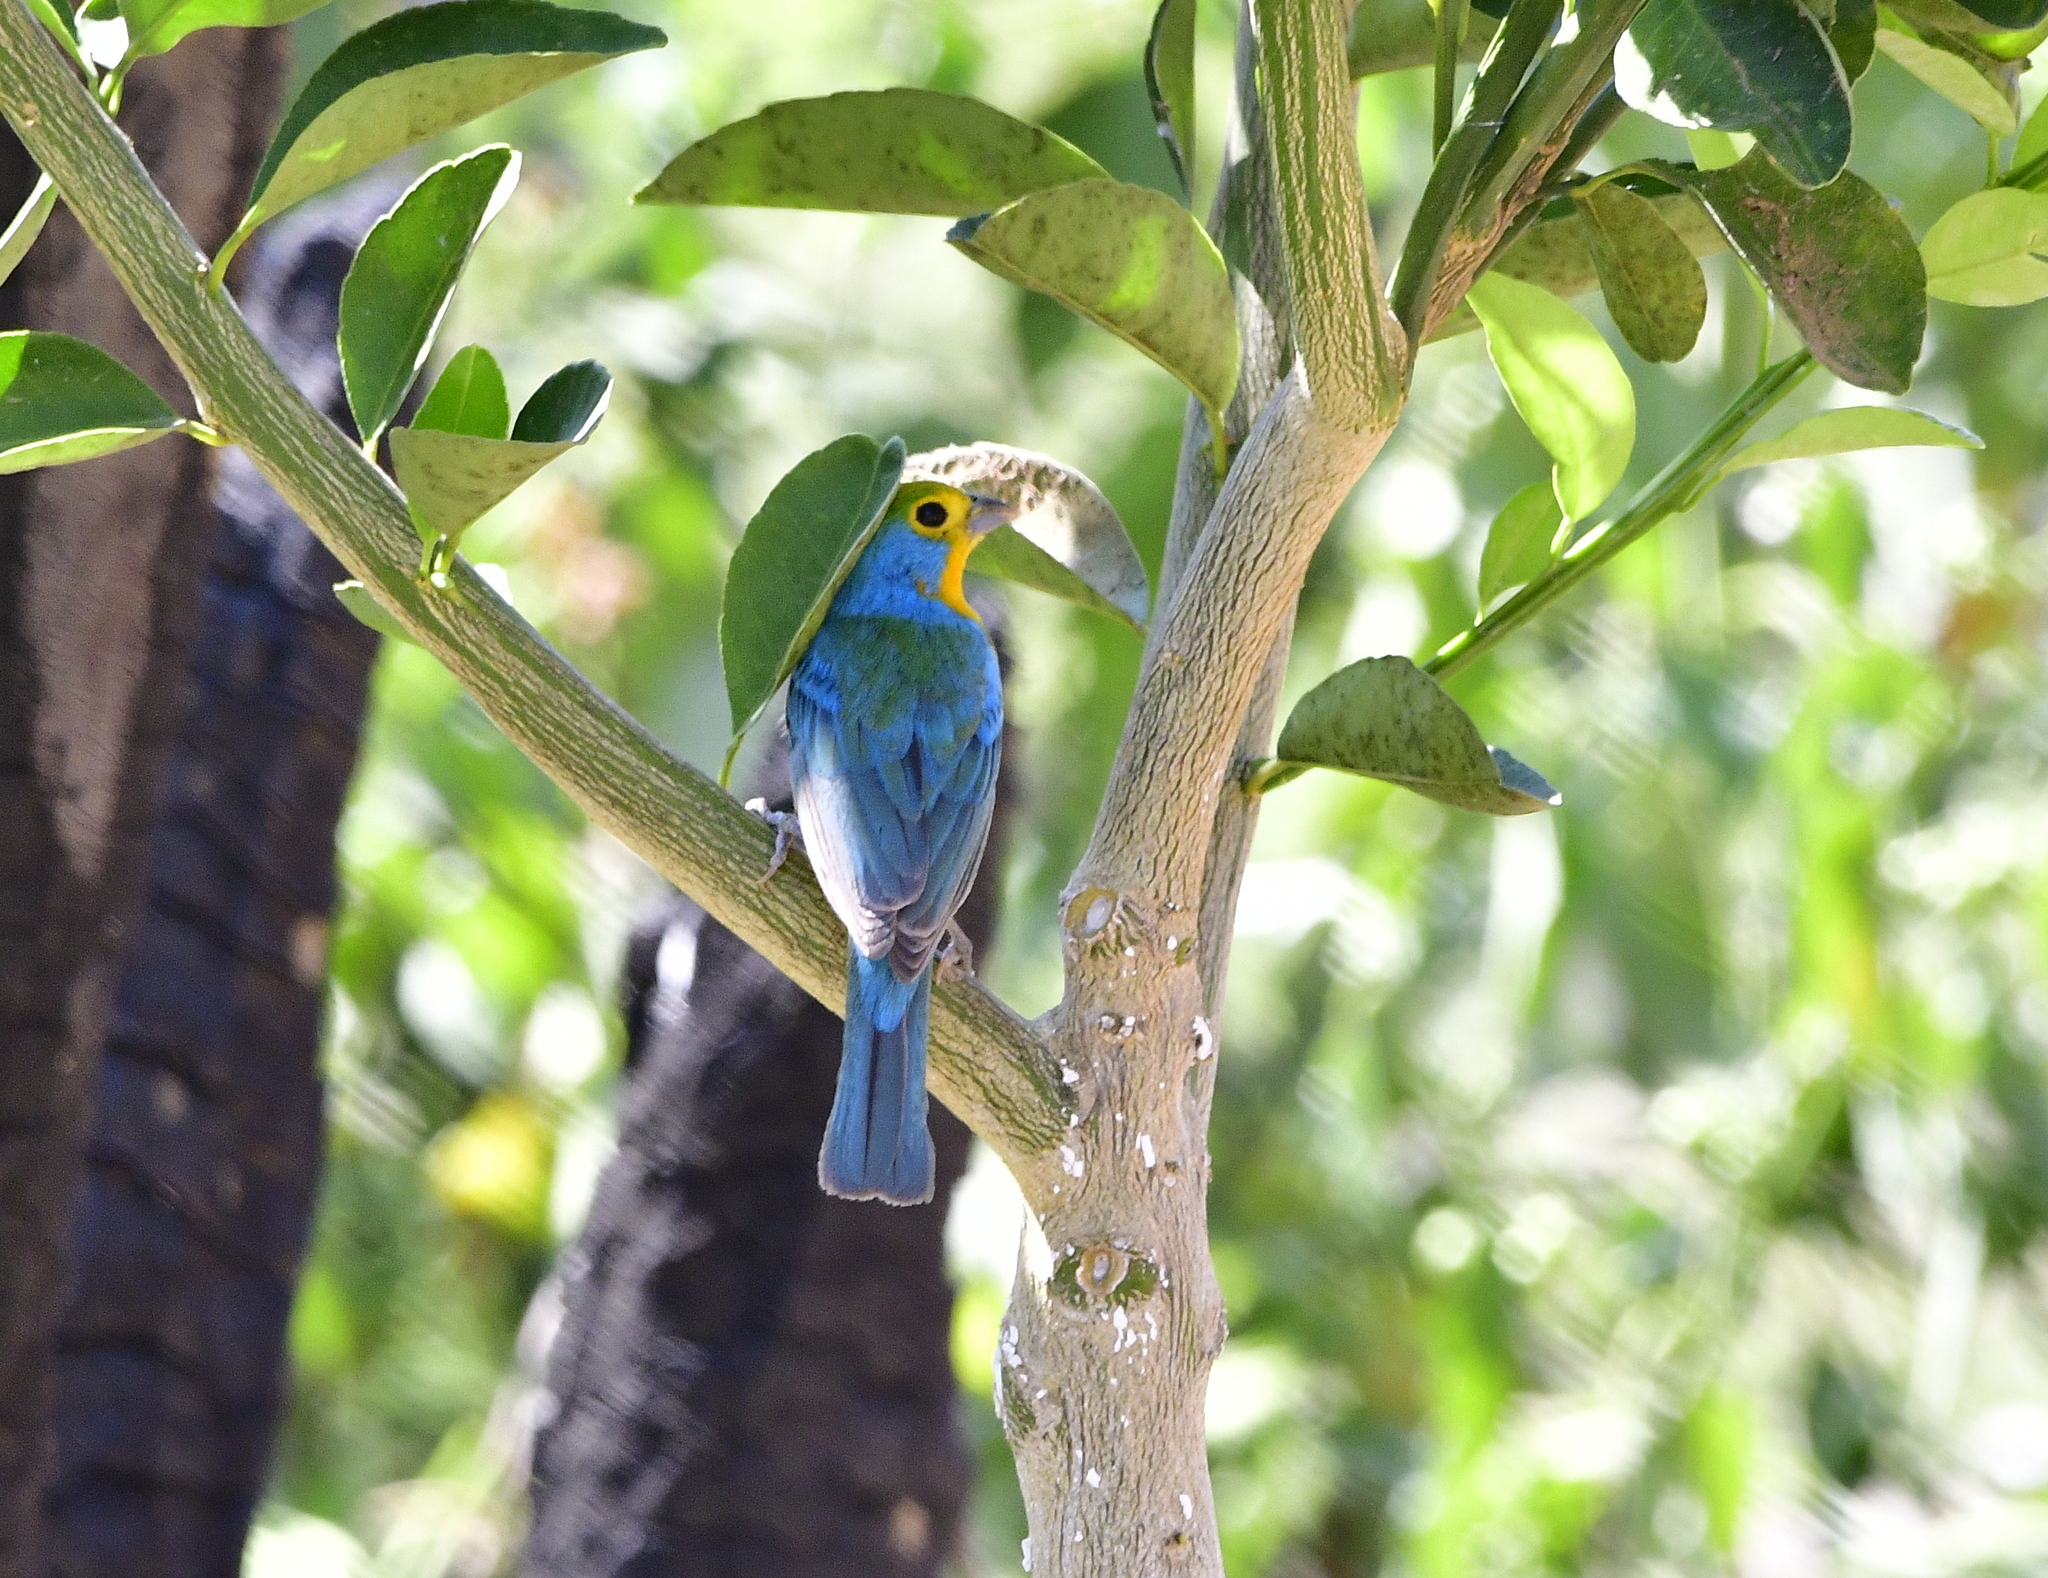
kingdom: Animalia
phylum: Chordata
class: Aves
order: Passeriformes
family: Cardinalidae
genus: Passerina
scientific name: Passerina leclancherii
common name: Orange-breasted bunting
